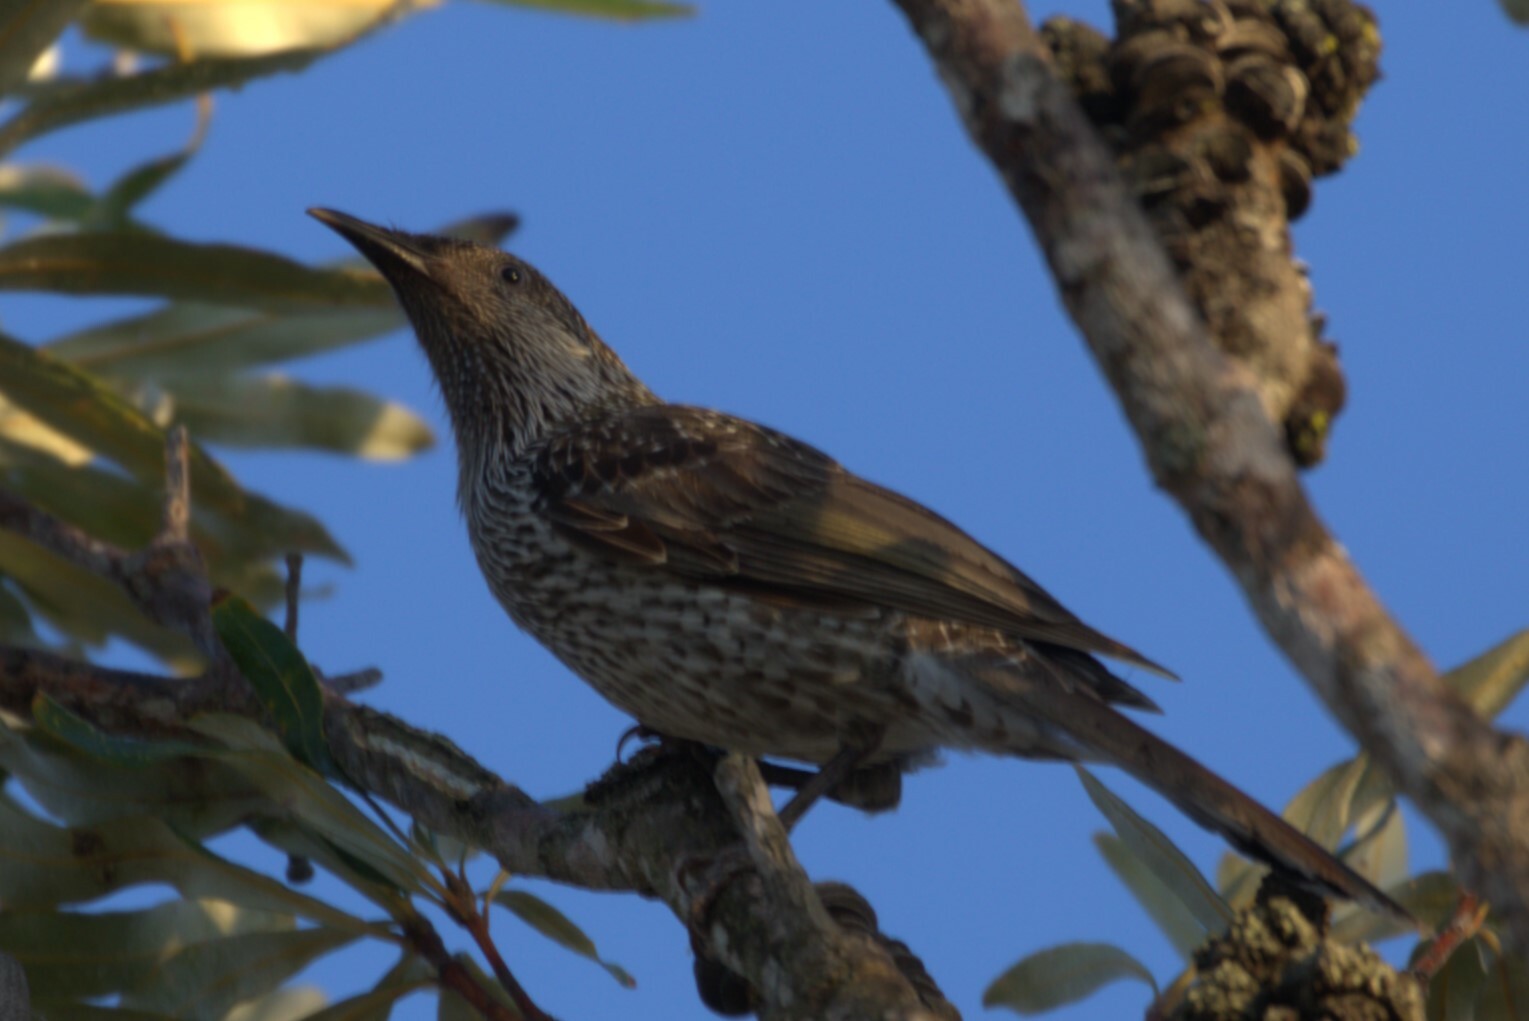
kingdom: Animalia
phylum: Chordata
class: Aves
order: Passeriformes
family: Meliphagidae
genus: Anthochaera
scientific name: Anthochaera chrysoptera
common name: Little wattlebird
